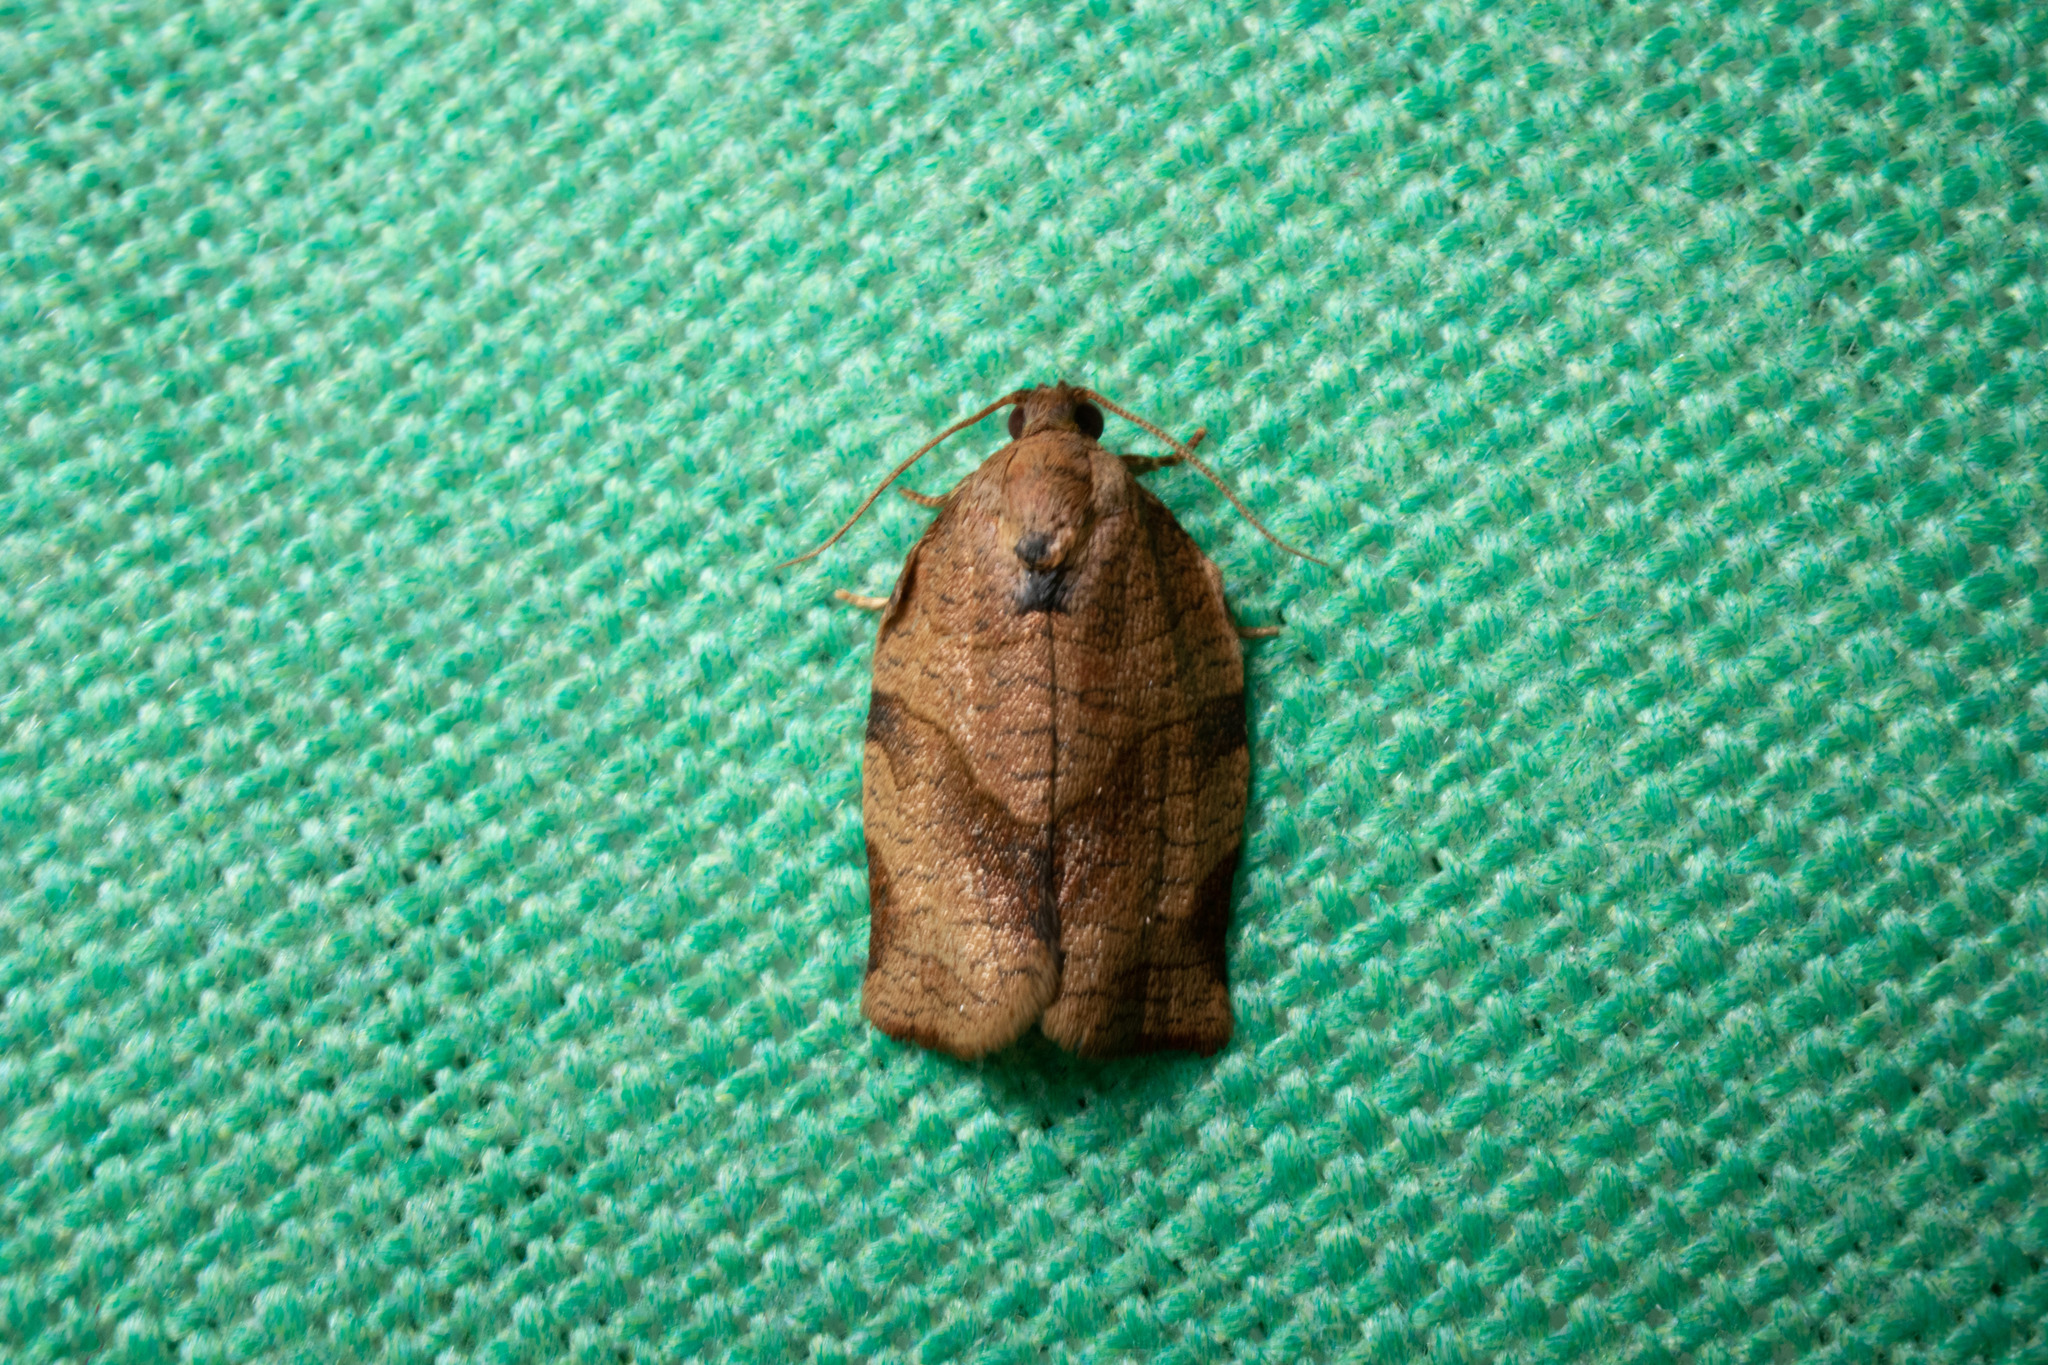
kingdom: Animalia
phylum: Arthropoda
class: Insecta
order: Lepidoptera
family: Tortricidae
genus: Choristoneura
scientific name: Choristoneura rosaceana
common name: Oblique-banded leafroller moth
